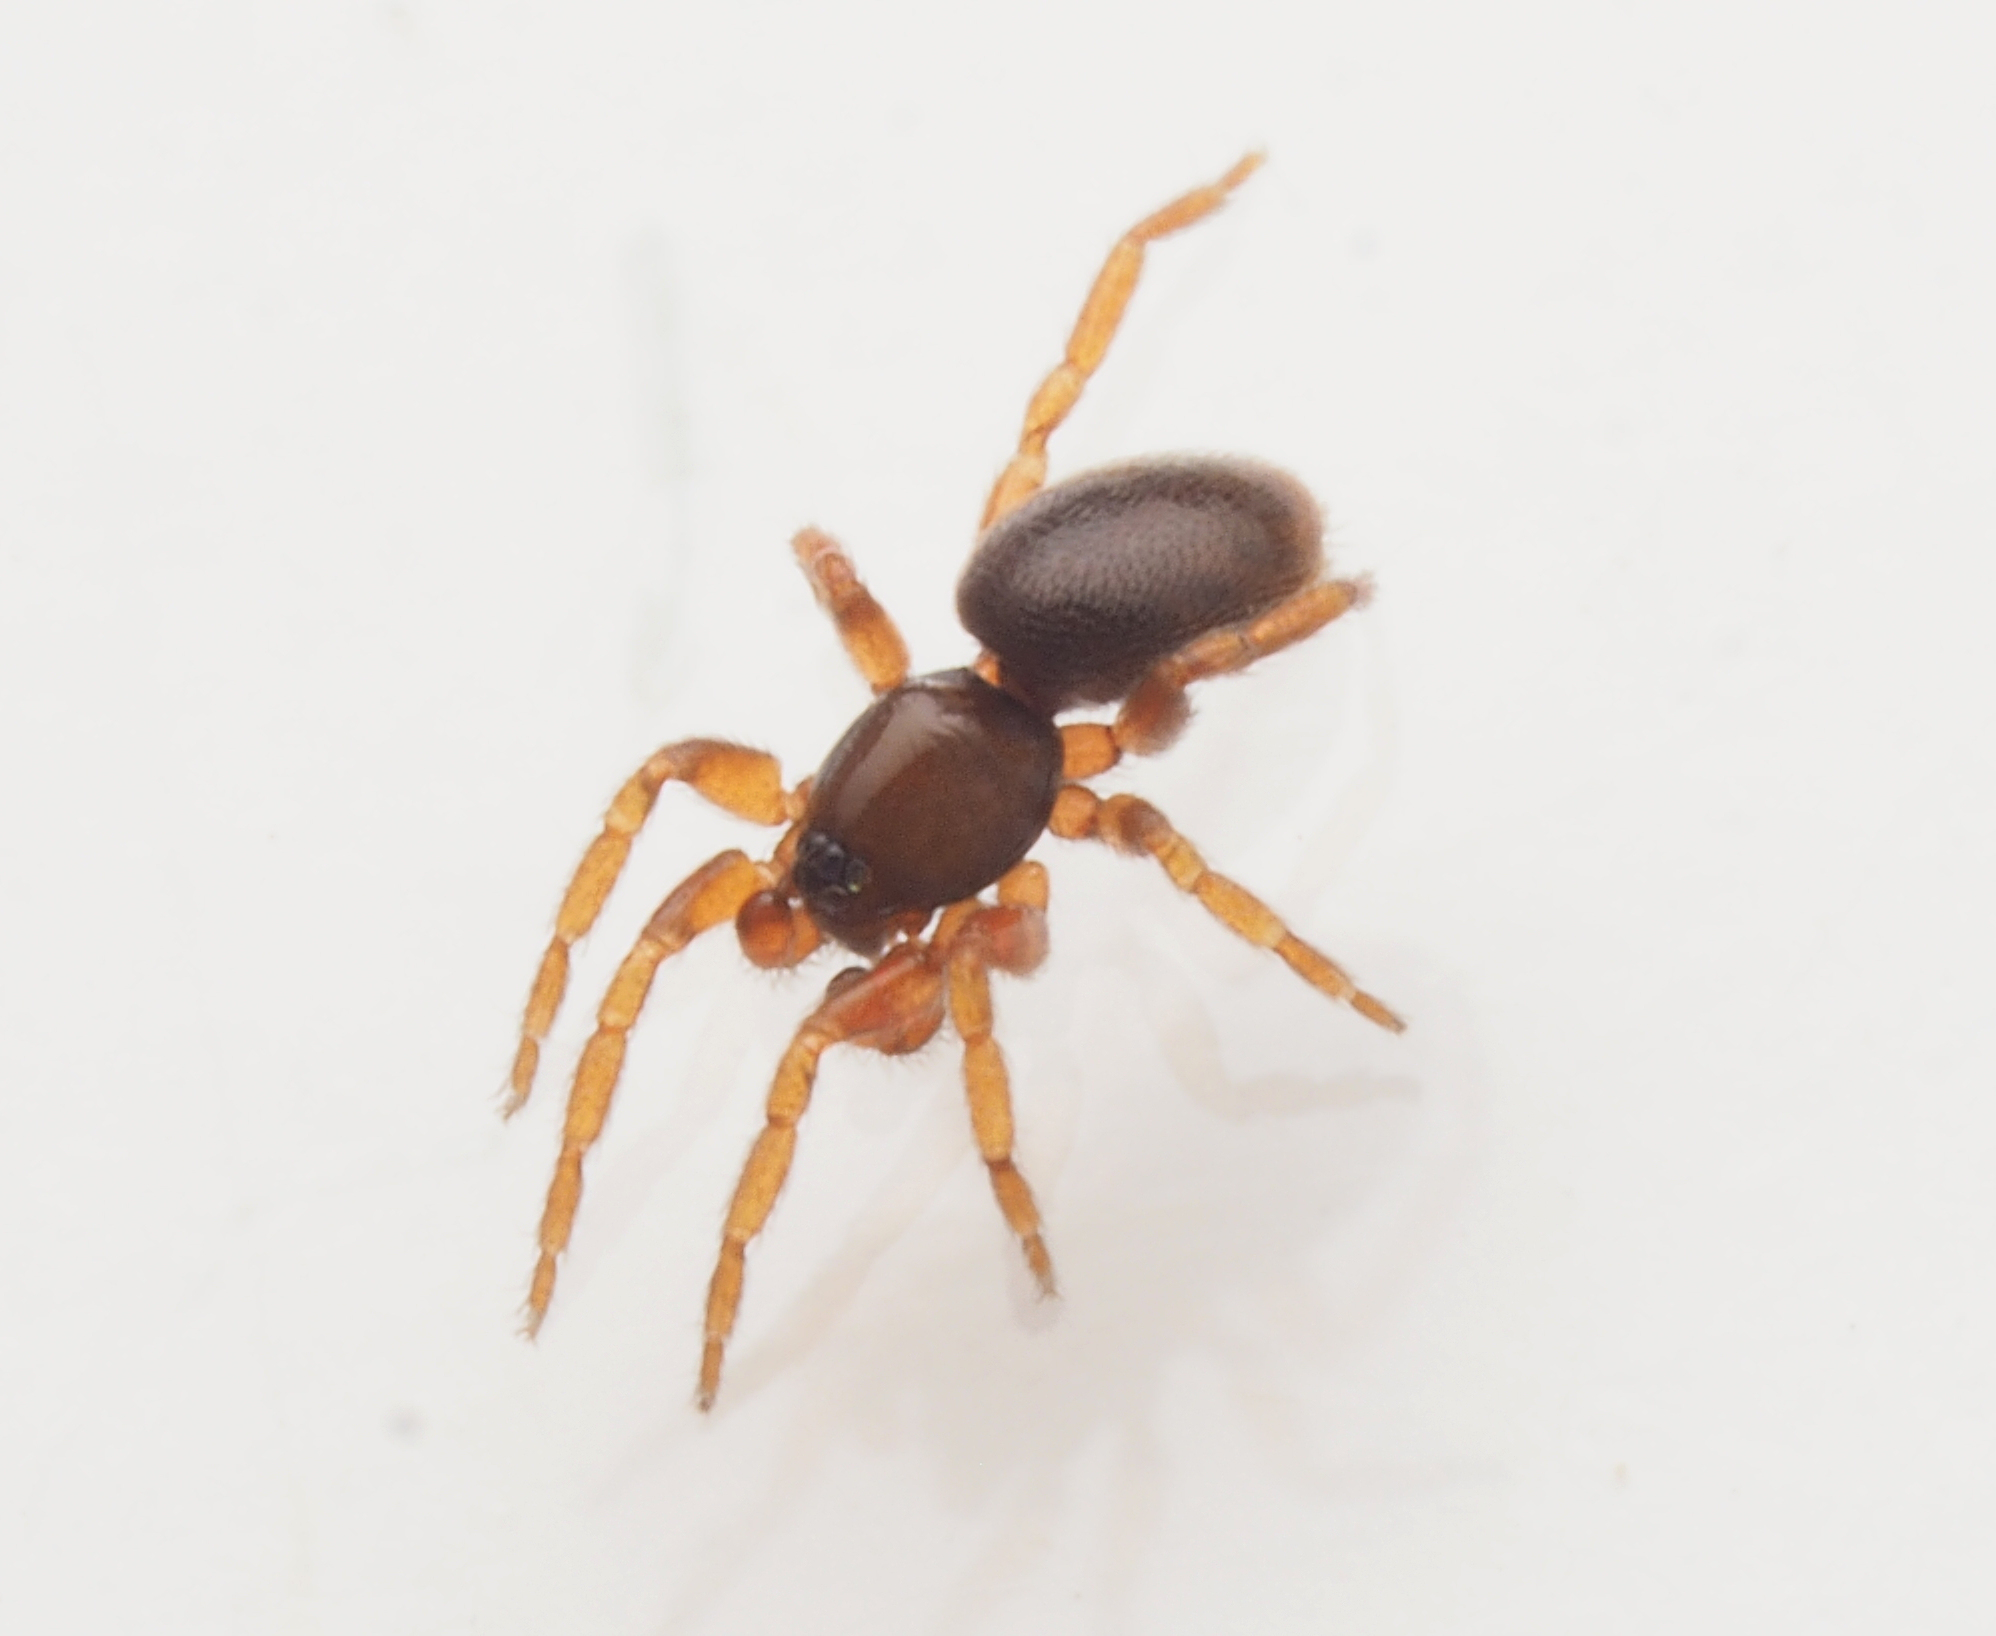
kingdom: Animalia
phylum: Arthropoda
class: Arachnida
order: Araneae
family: Oonopidae
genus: Opopaea
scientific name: Opopaea
